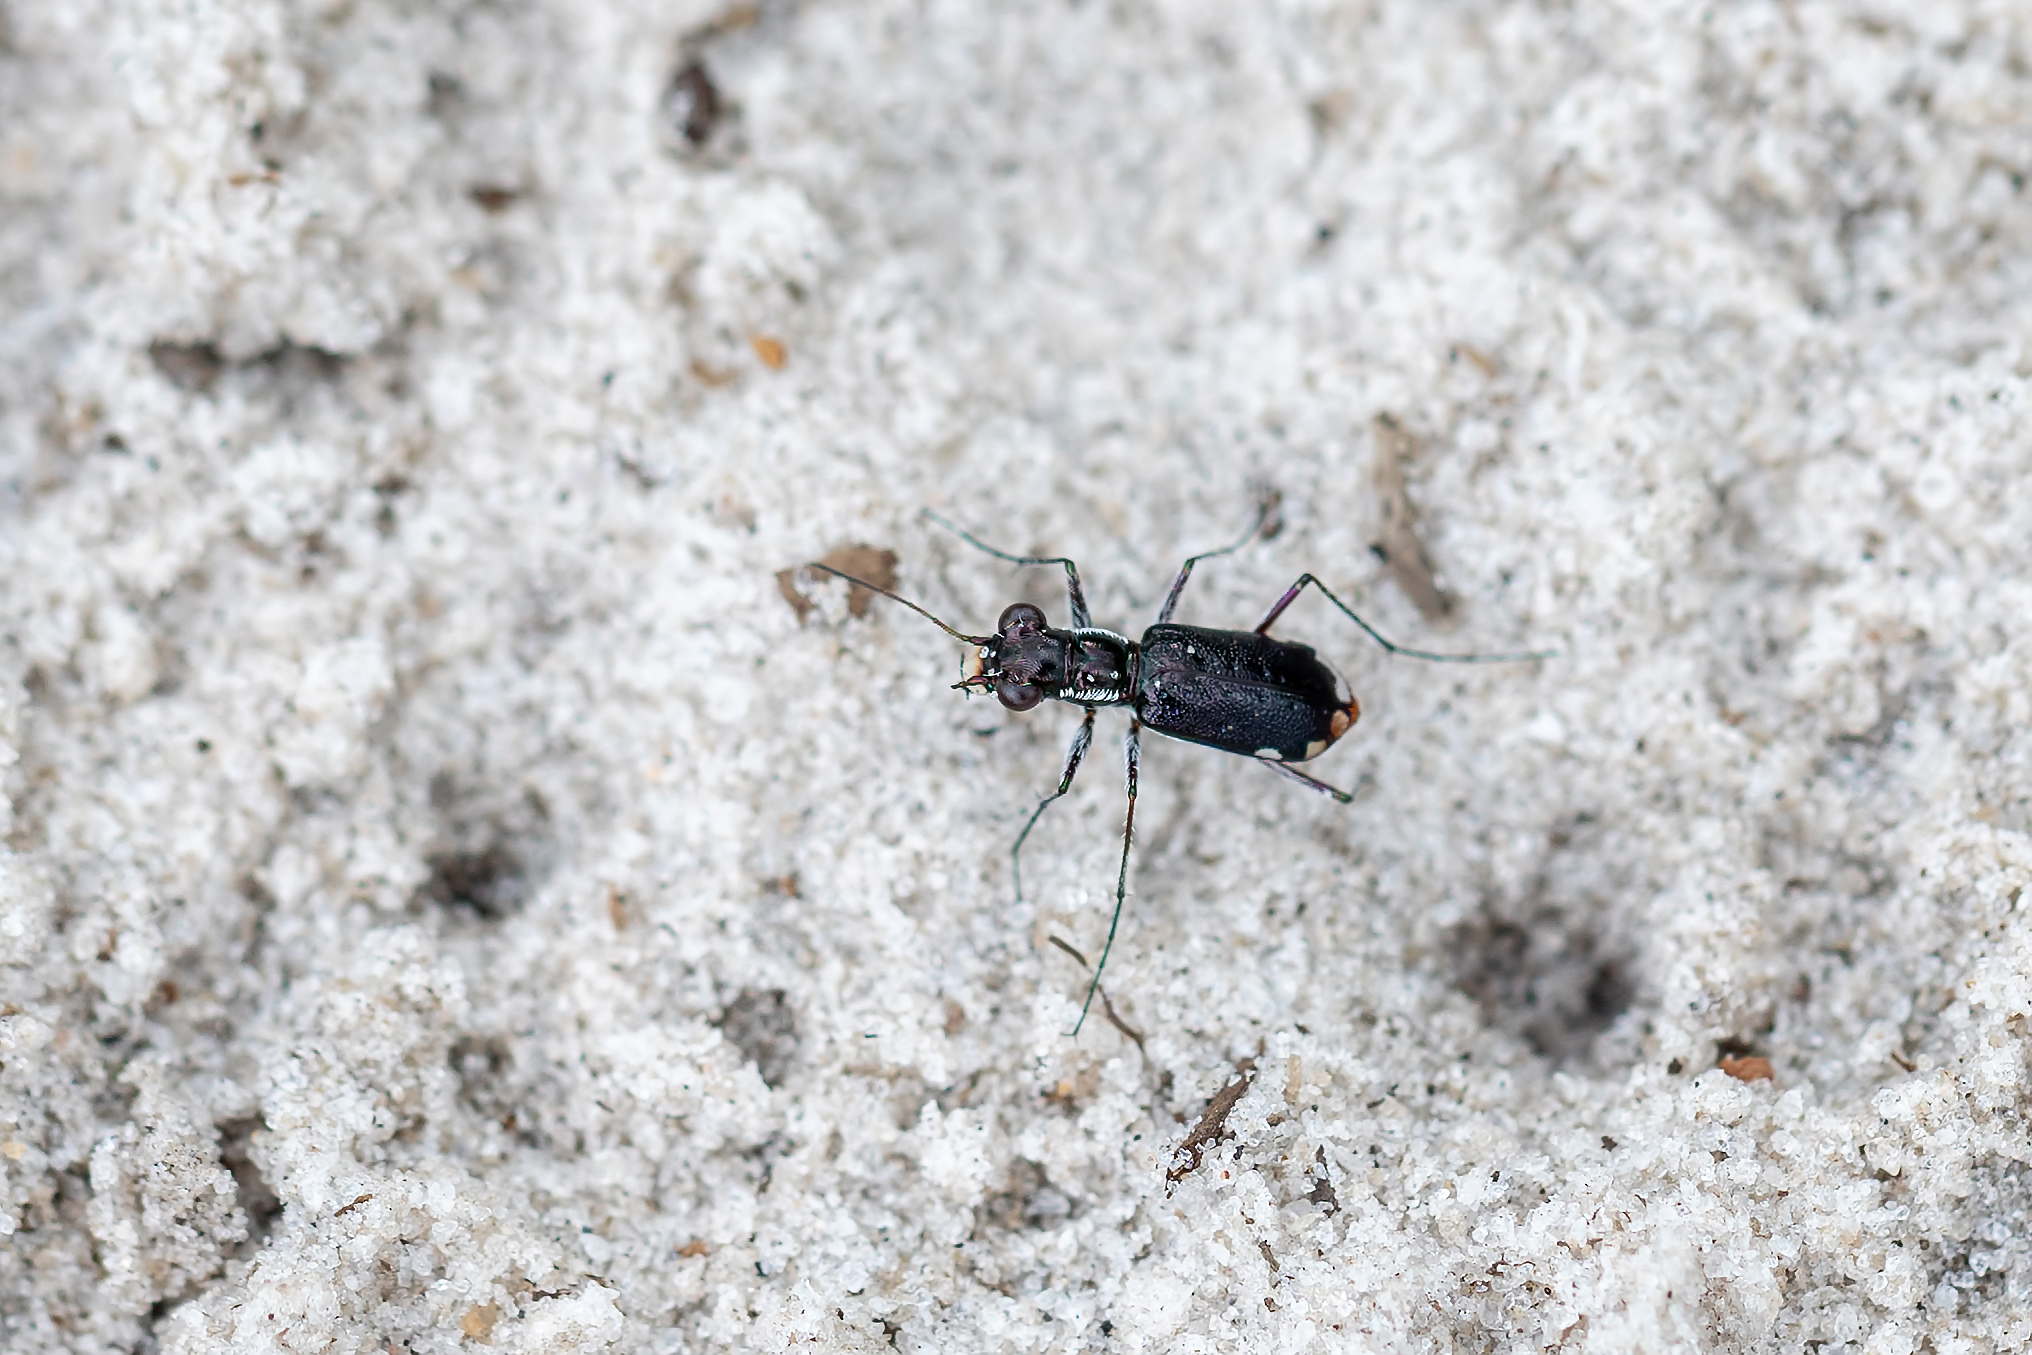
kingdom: Animalia
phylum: Arthropoda
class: Insecta
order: Coleoptera
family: Carabidae
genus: Cicindela
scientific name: Cicindela scabrosa
